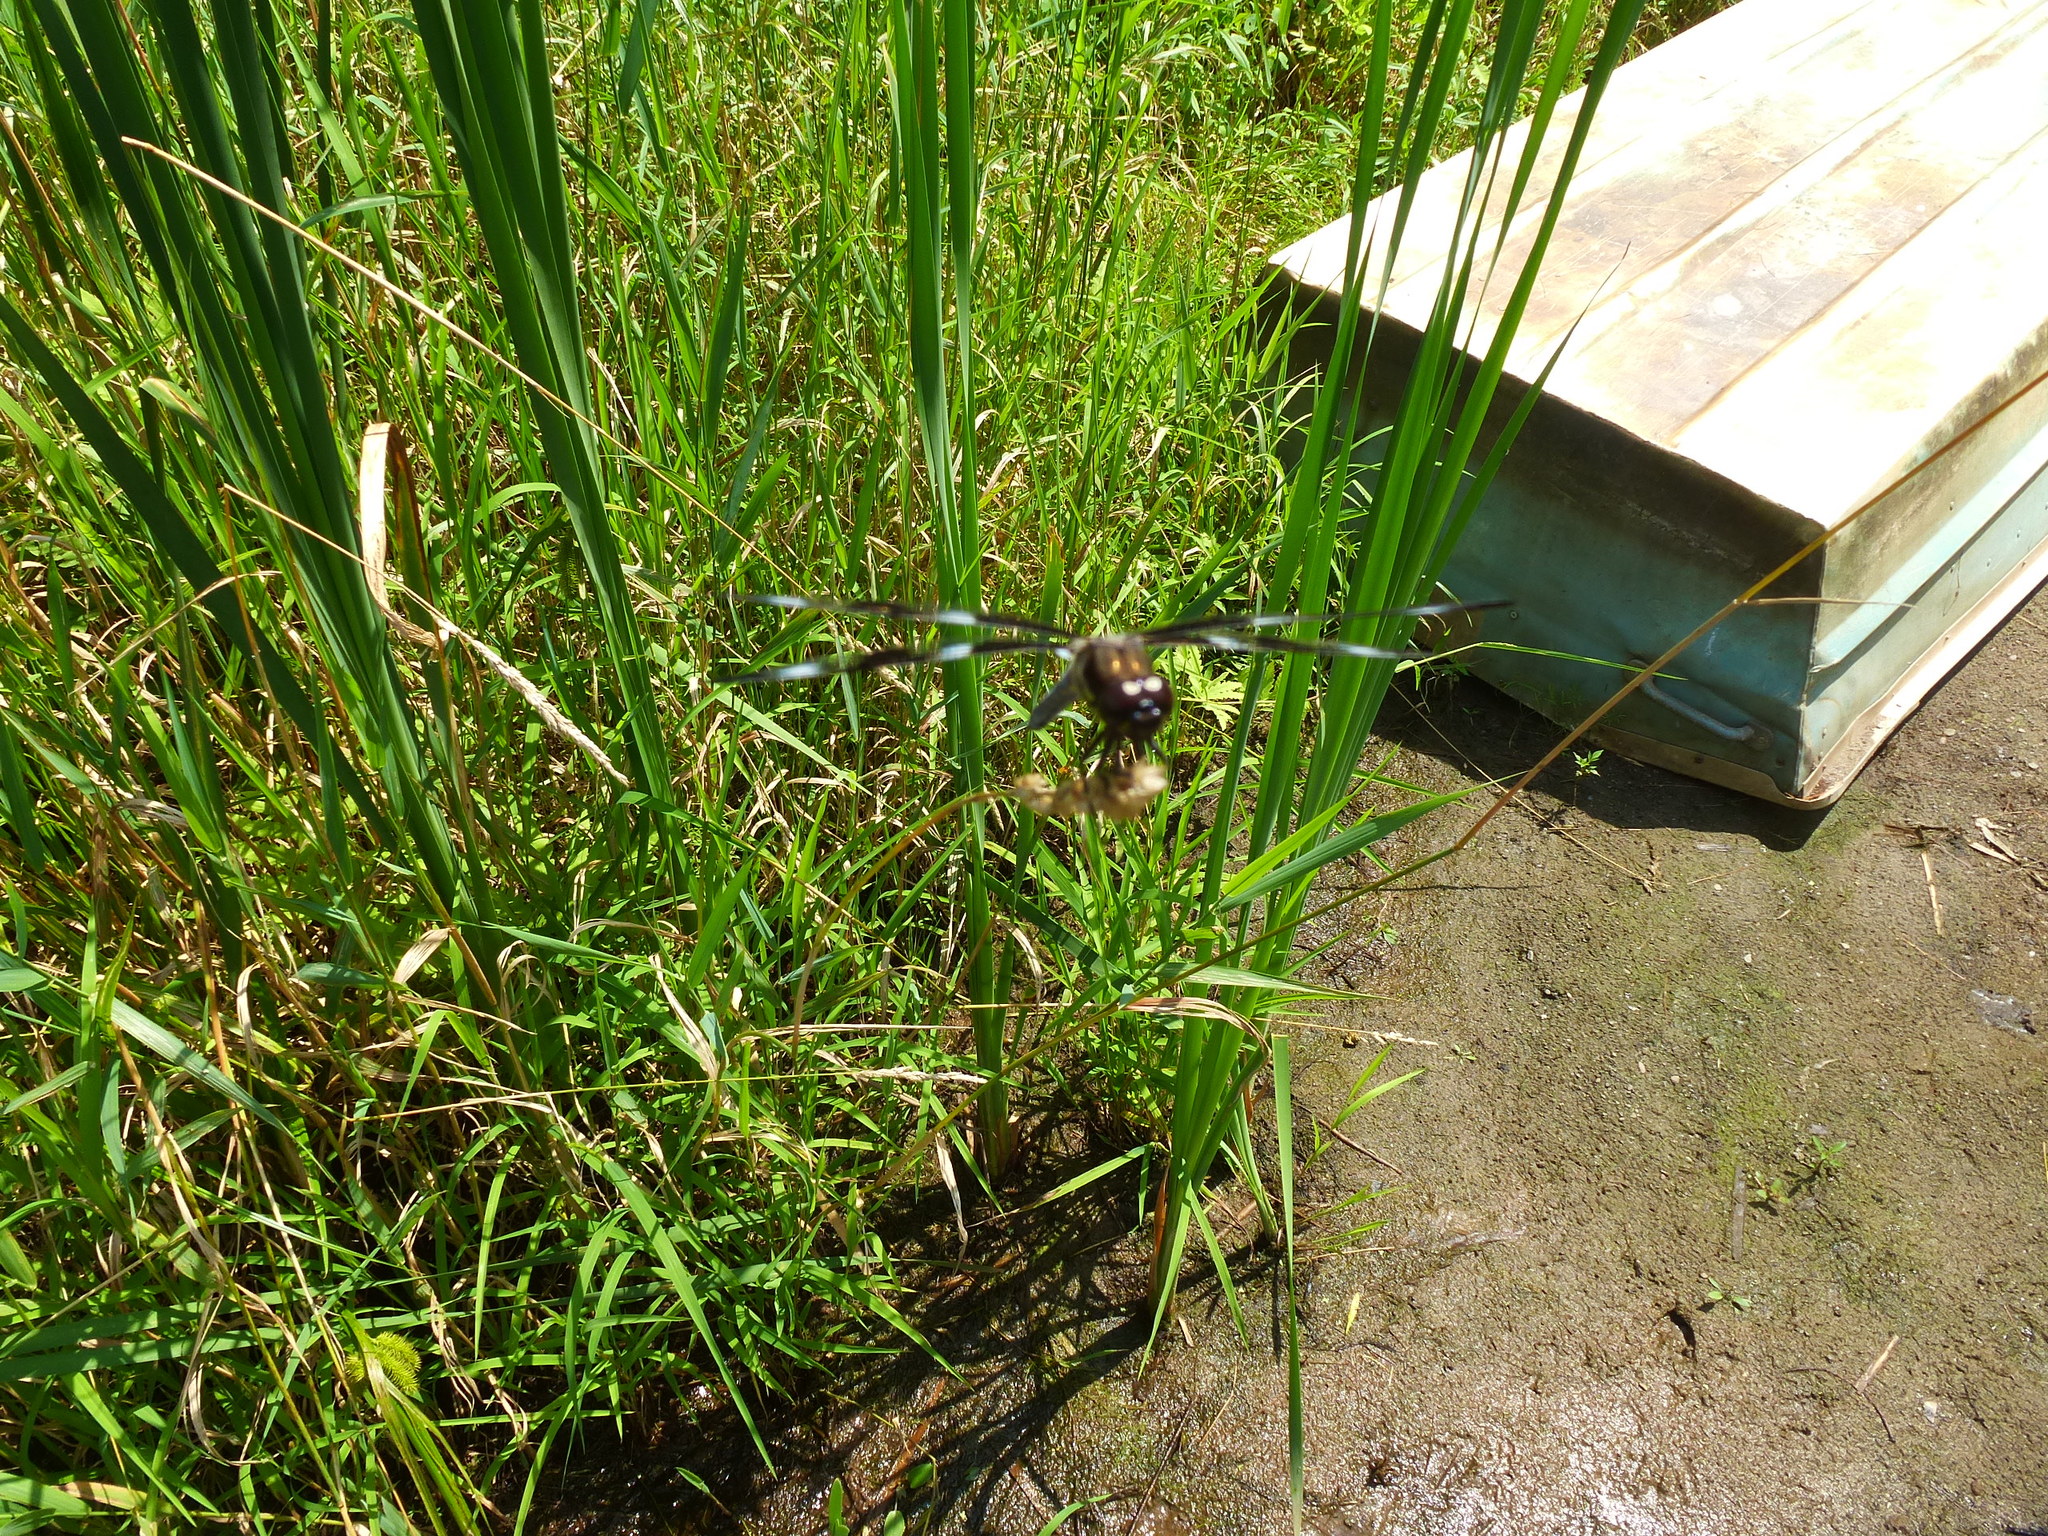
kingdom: Animalia
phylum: Arthropoda
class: Insecta
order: Odonata
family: Libellulidae
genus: Libellula
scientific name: Libellula pulchella
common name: Twelve-spotted skimmer
